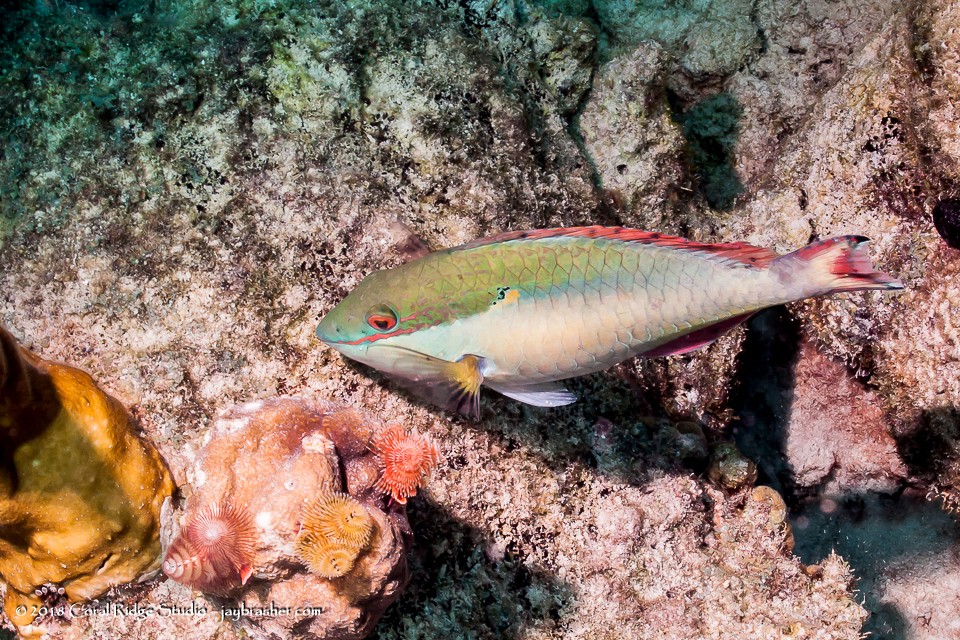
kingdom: Animalia
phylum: Chordata
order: Perciformes
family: Scaridae
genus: Sparisoma
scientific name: Sparisoma aurofrenatum
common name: Redband parrotfish
